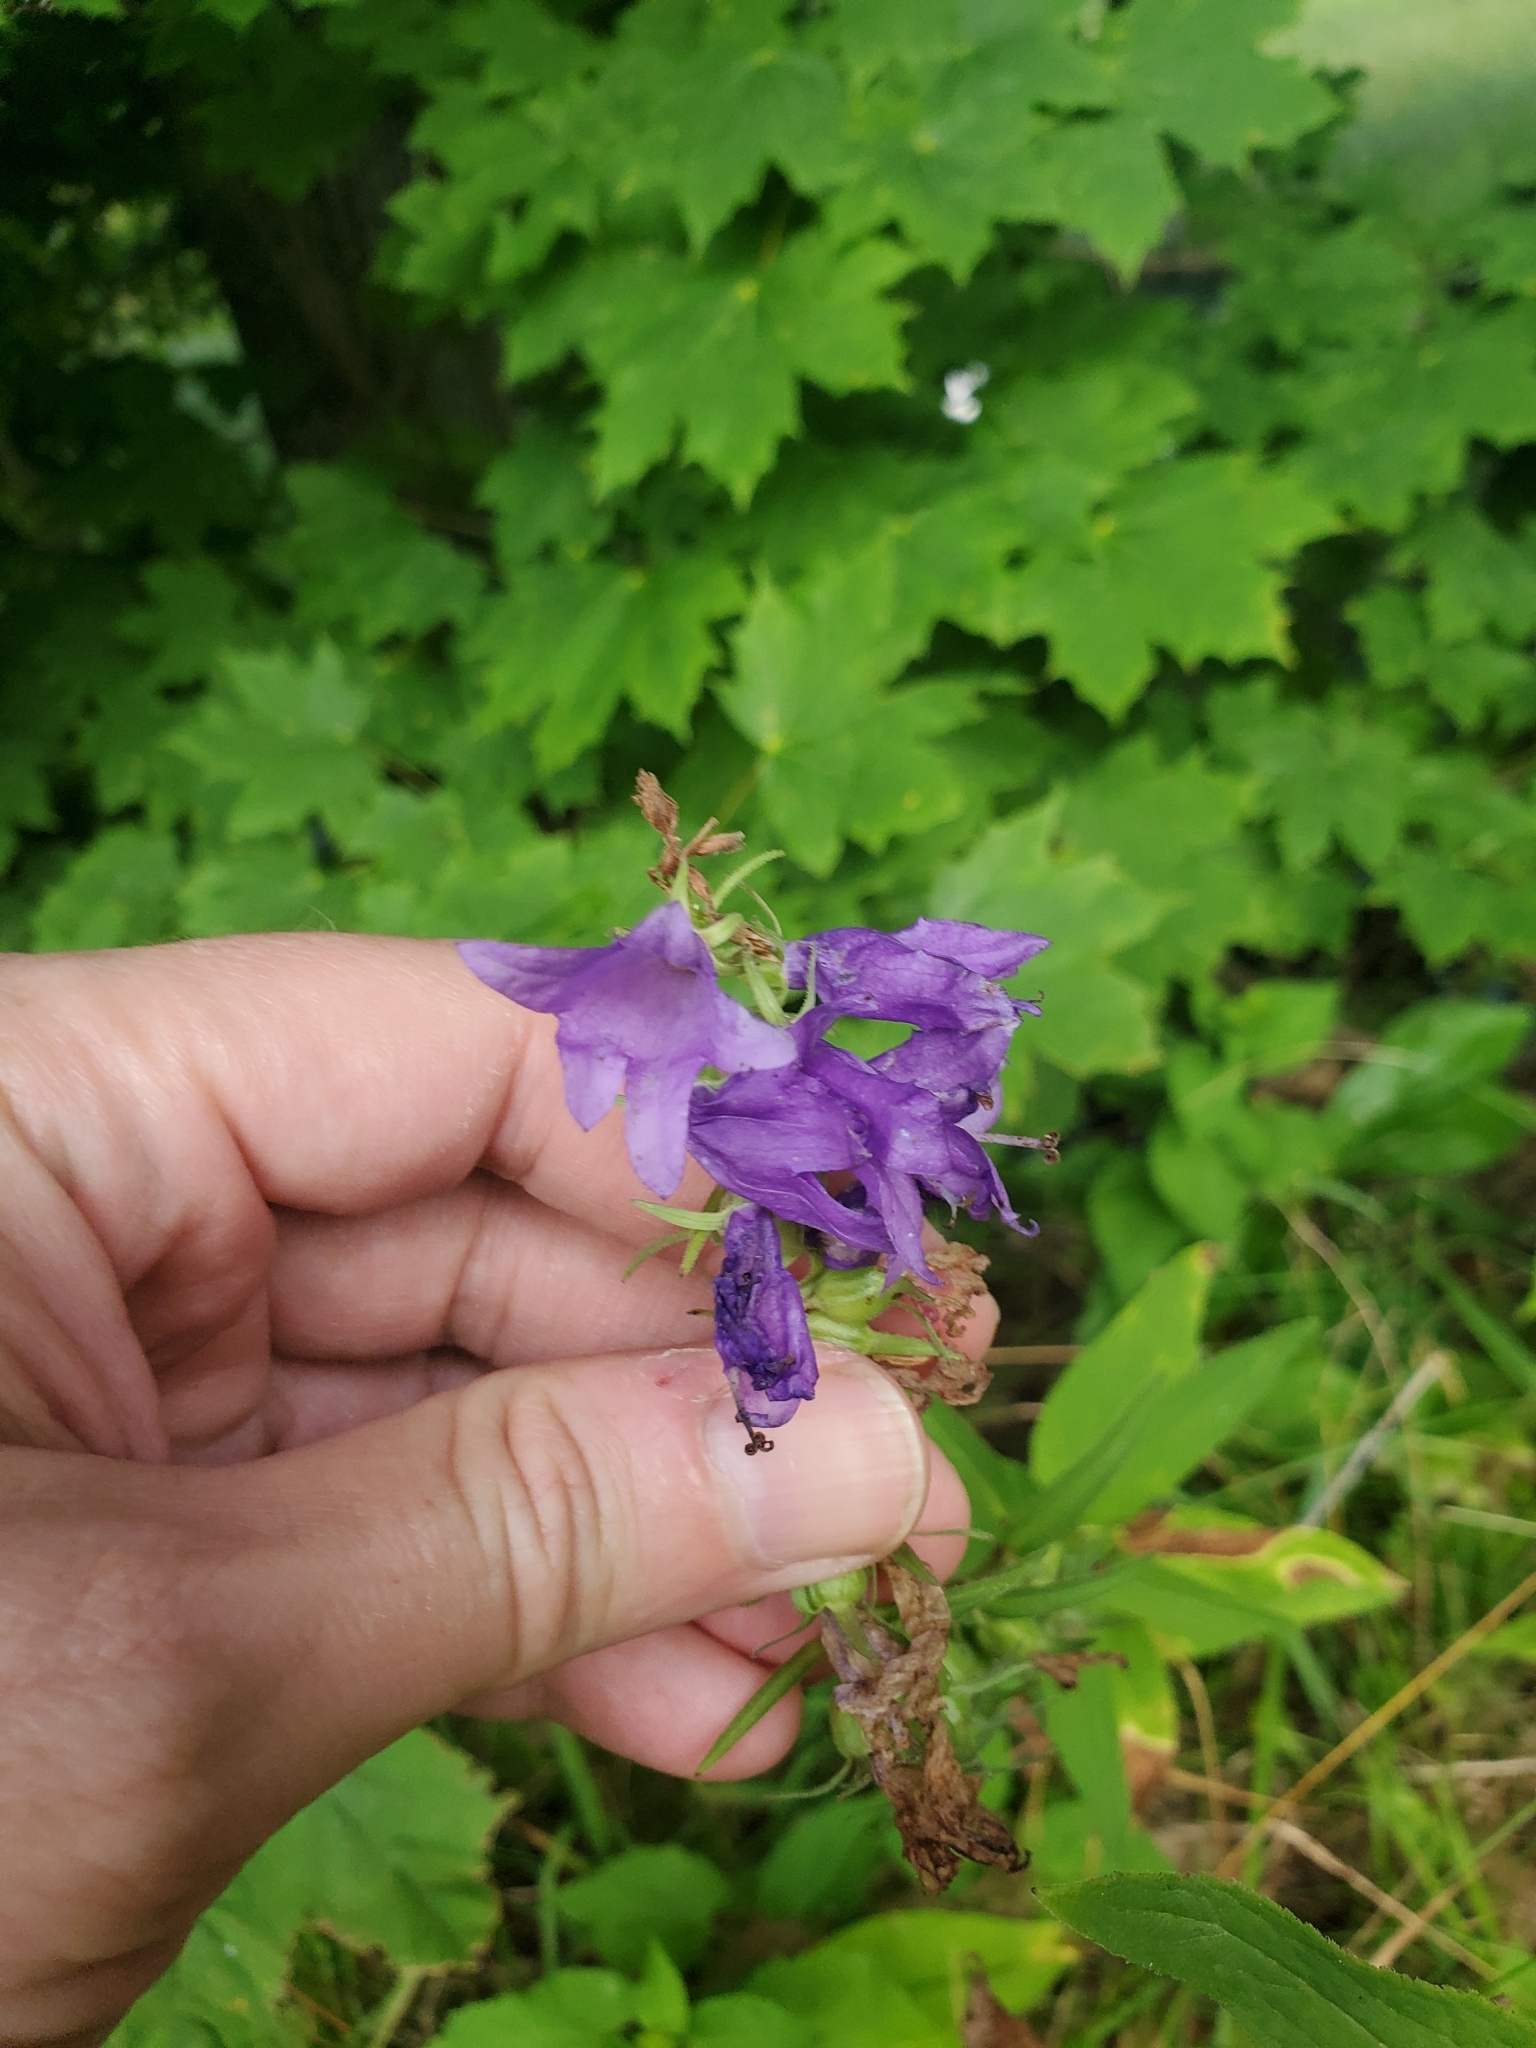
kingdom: Plantae
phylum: Tracheophyta
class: Magnoliopsida
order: Asterales
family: Campanulaceae
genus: Campanula
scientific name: Campanula rapunculoides
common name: Creeping bellflower
